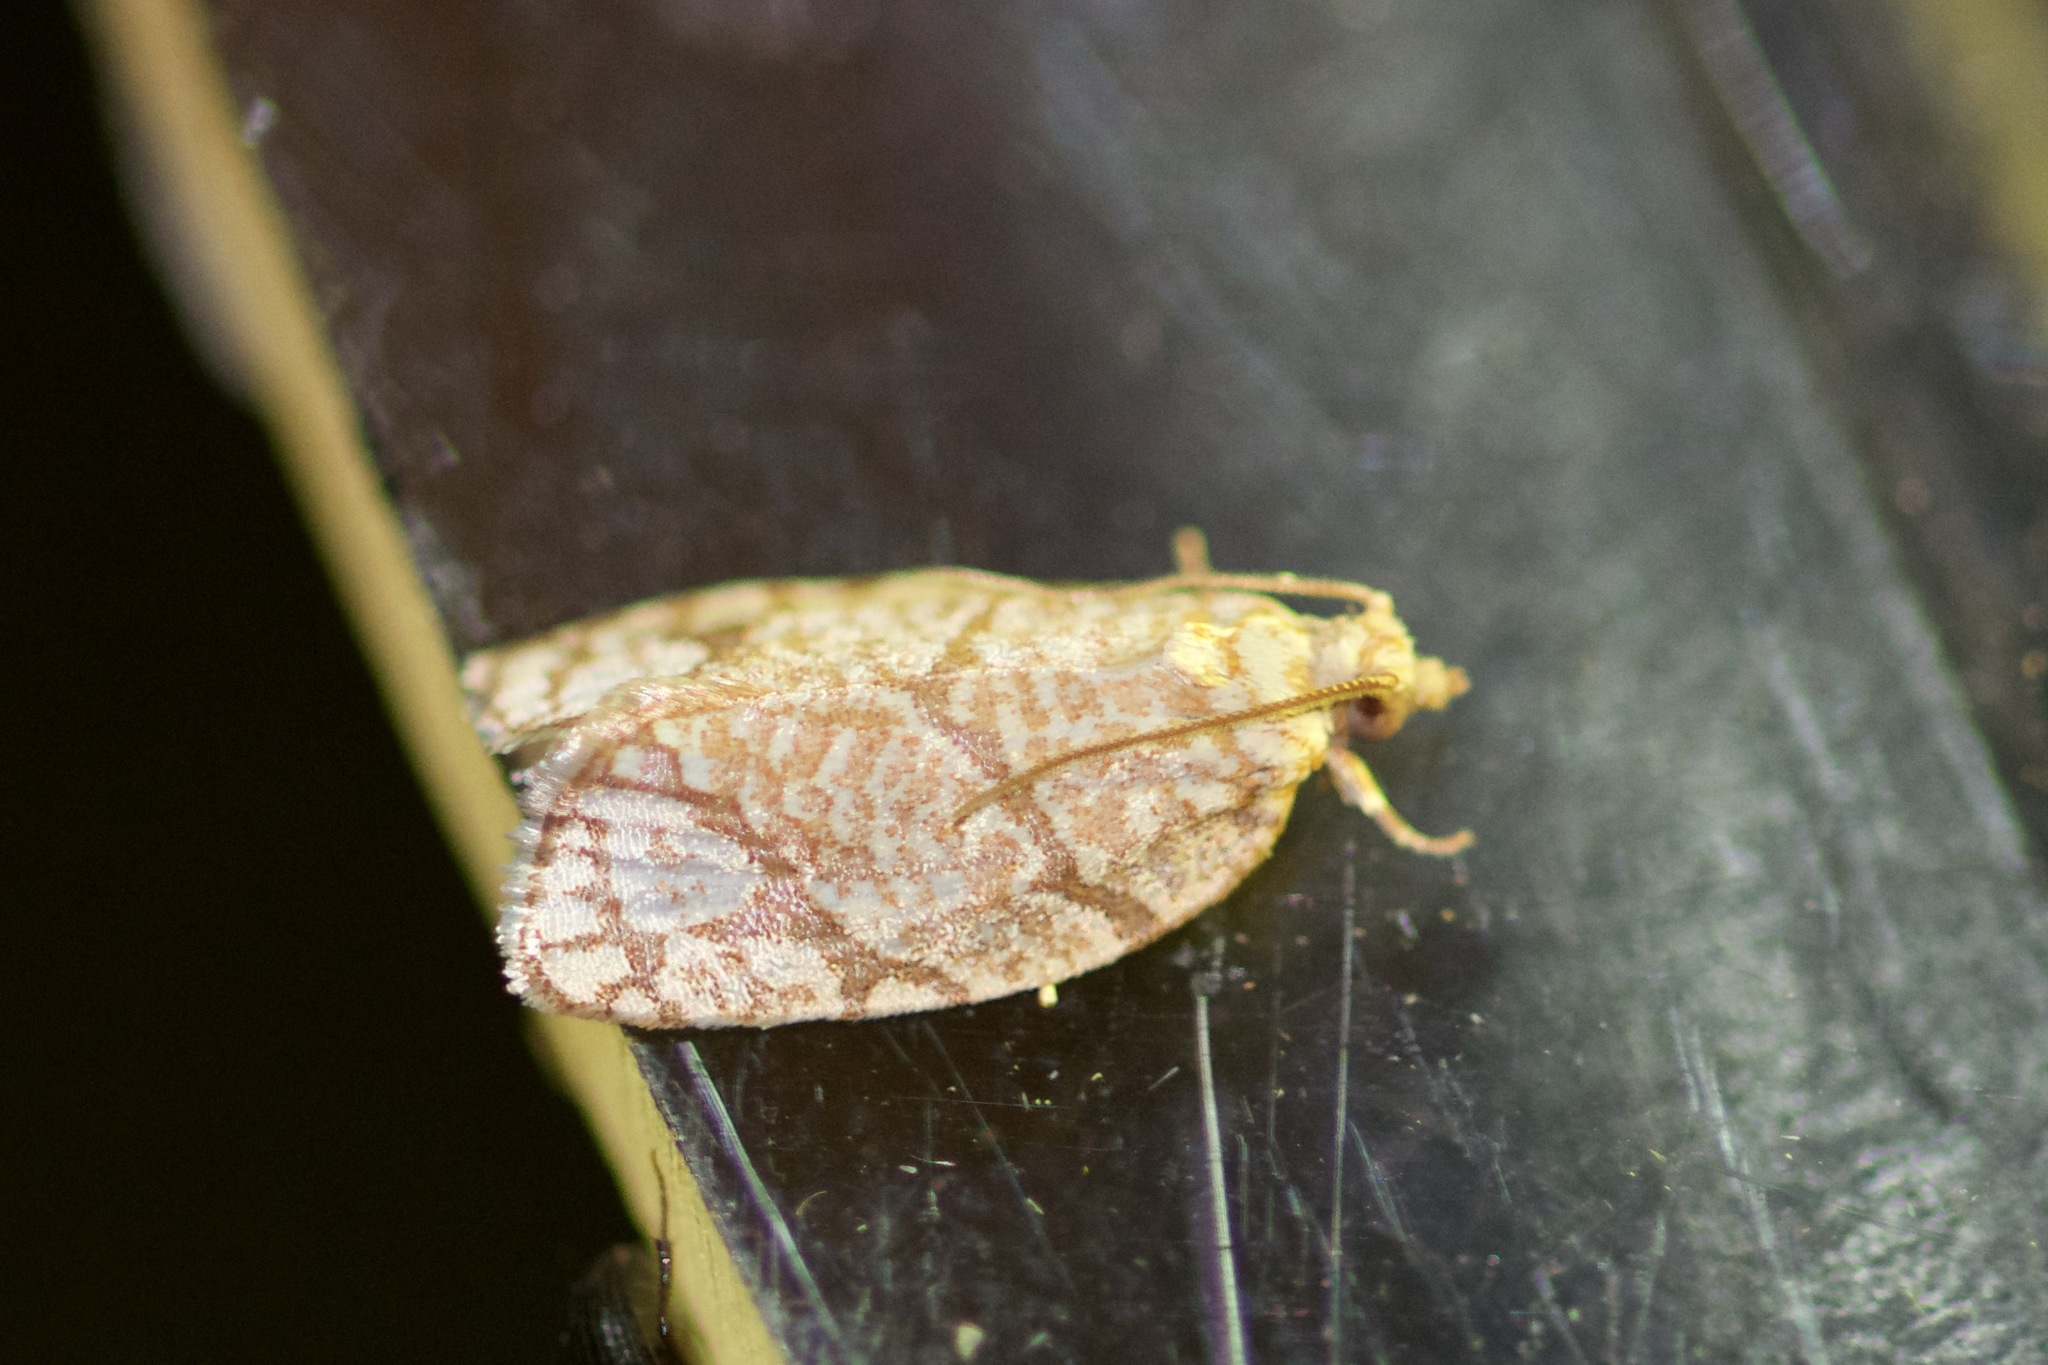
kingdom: Animalia
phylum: Arthropoda
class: Insecta
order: Lepidoptera
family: Tortricidae
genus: Argyrotaenia
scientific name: Argyrotaenia quercifoliana
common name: Yellow-winged oak leafroller moth
